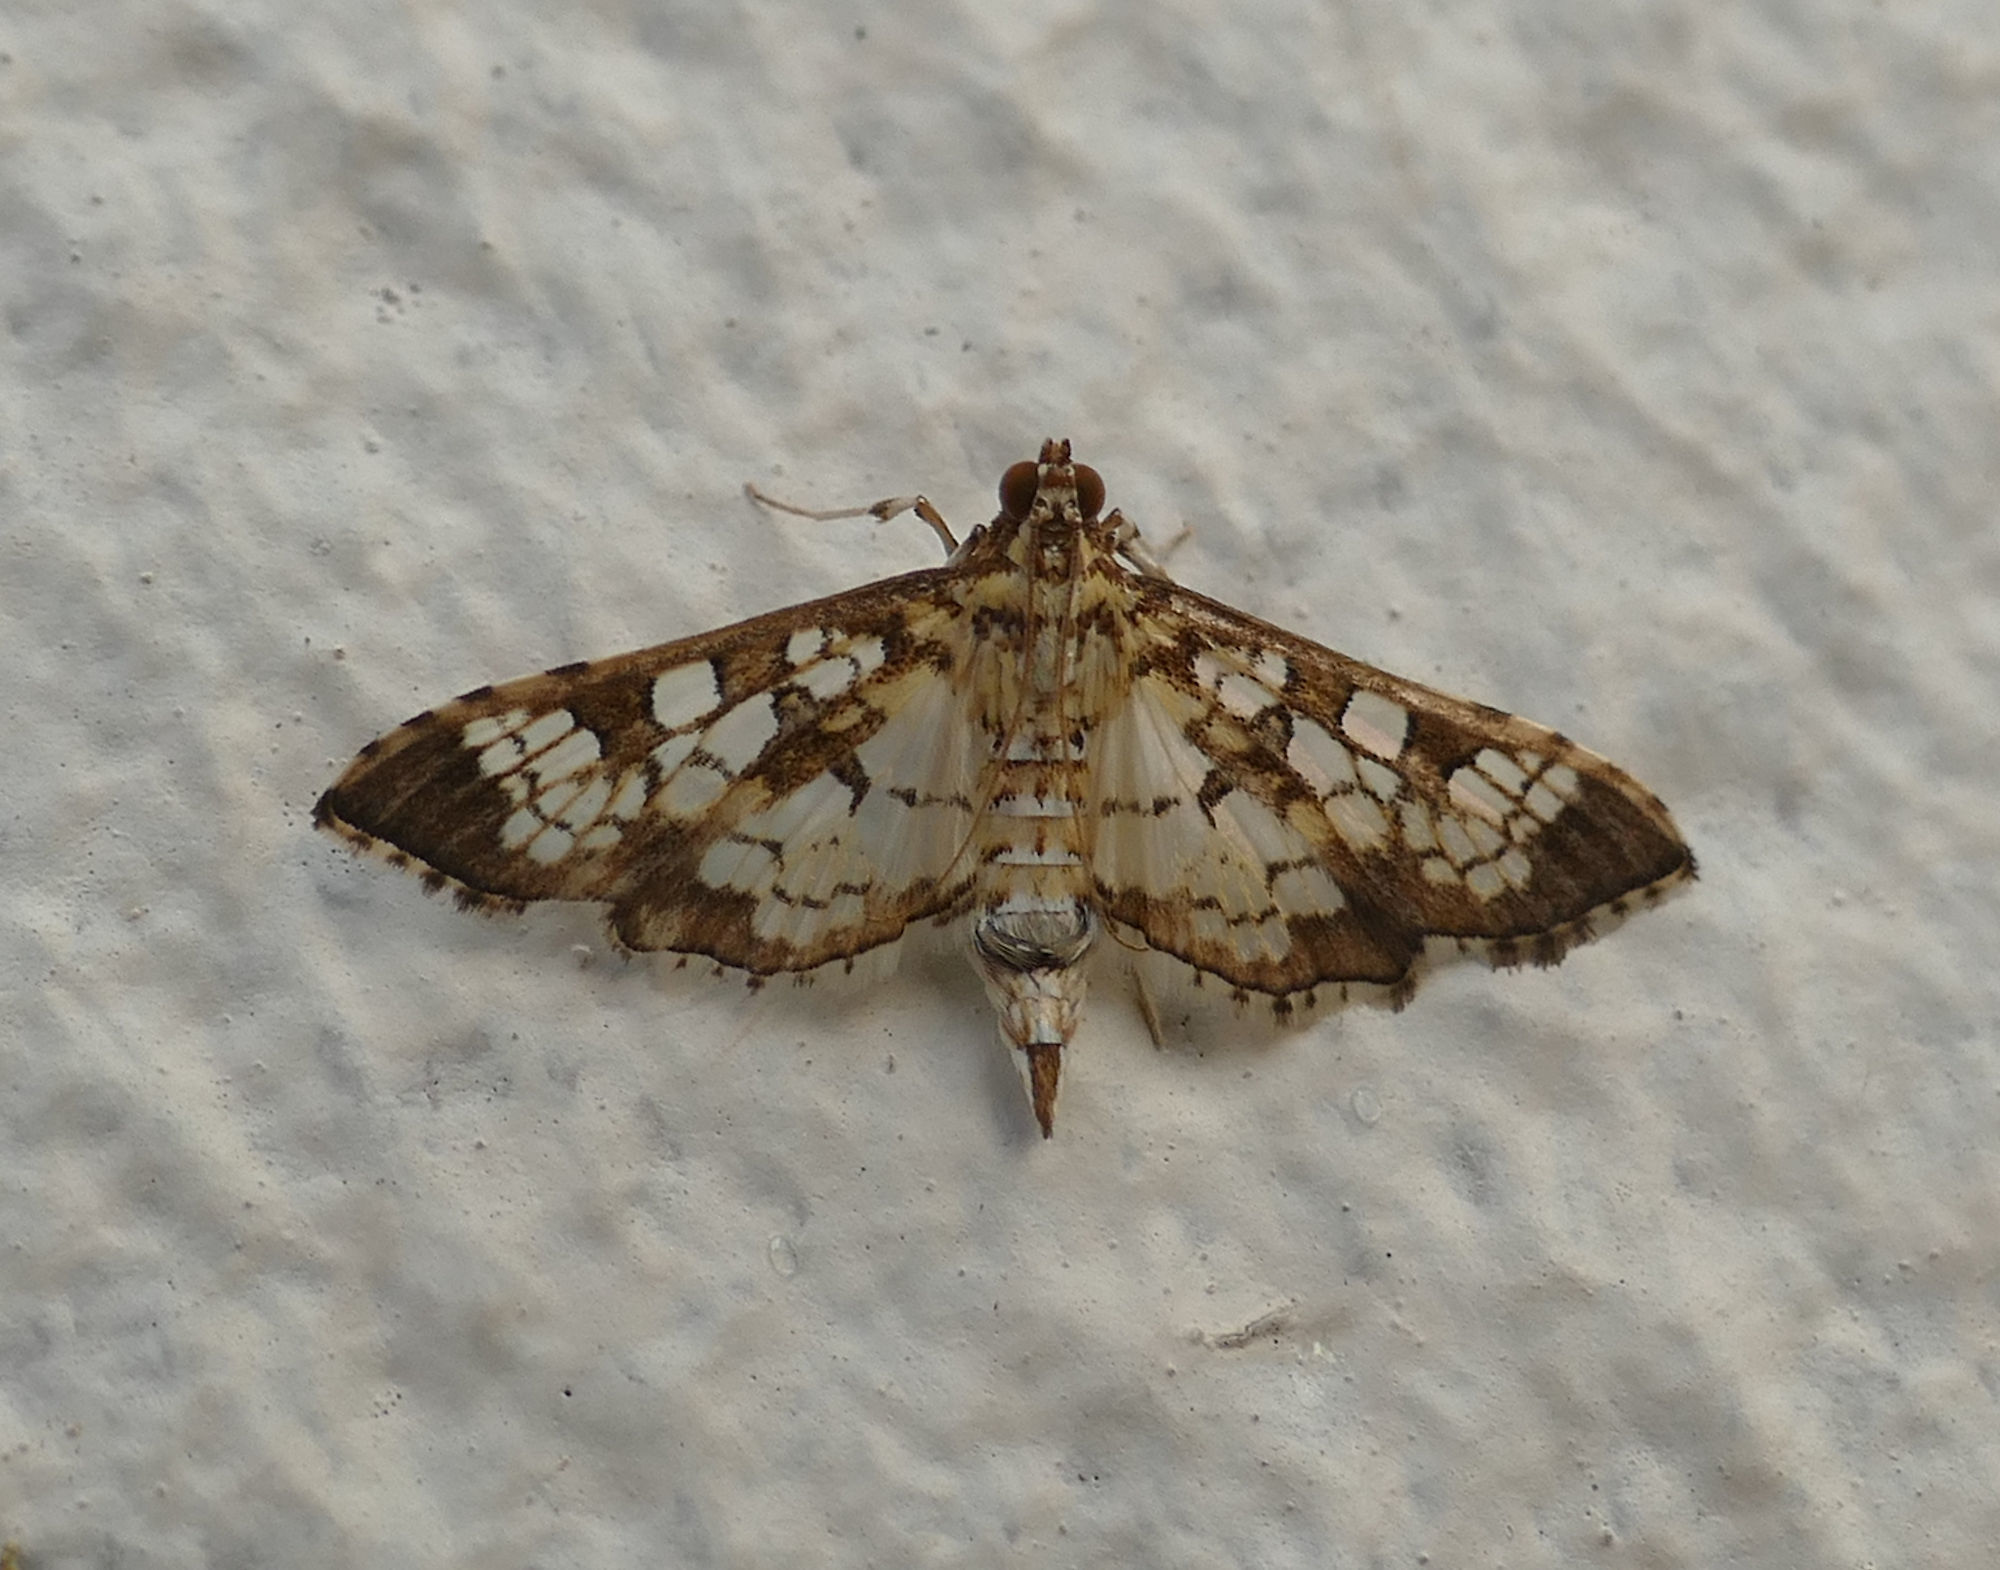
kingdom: Animalia
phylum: Arthropoda
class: Insecta
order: Lepidoptera
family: Crambidae
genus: Samea
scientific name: Samea ecclesialis
